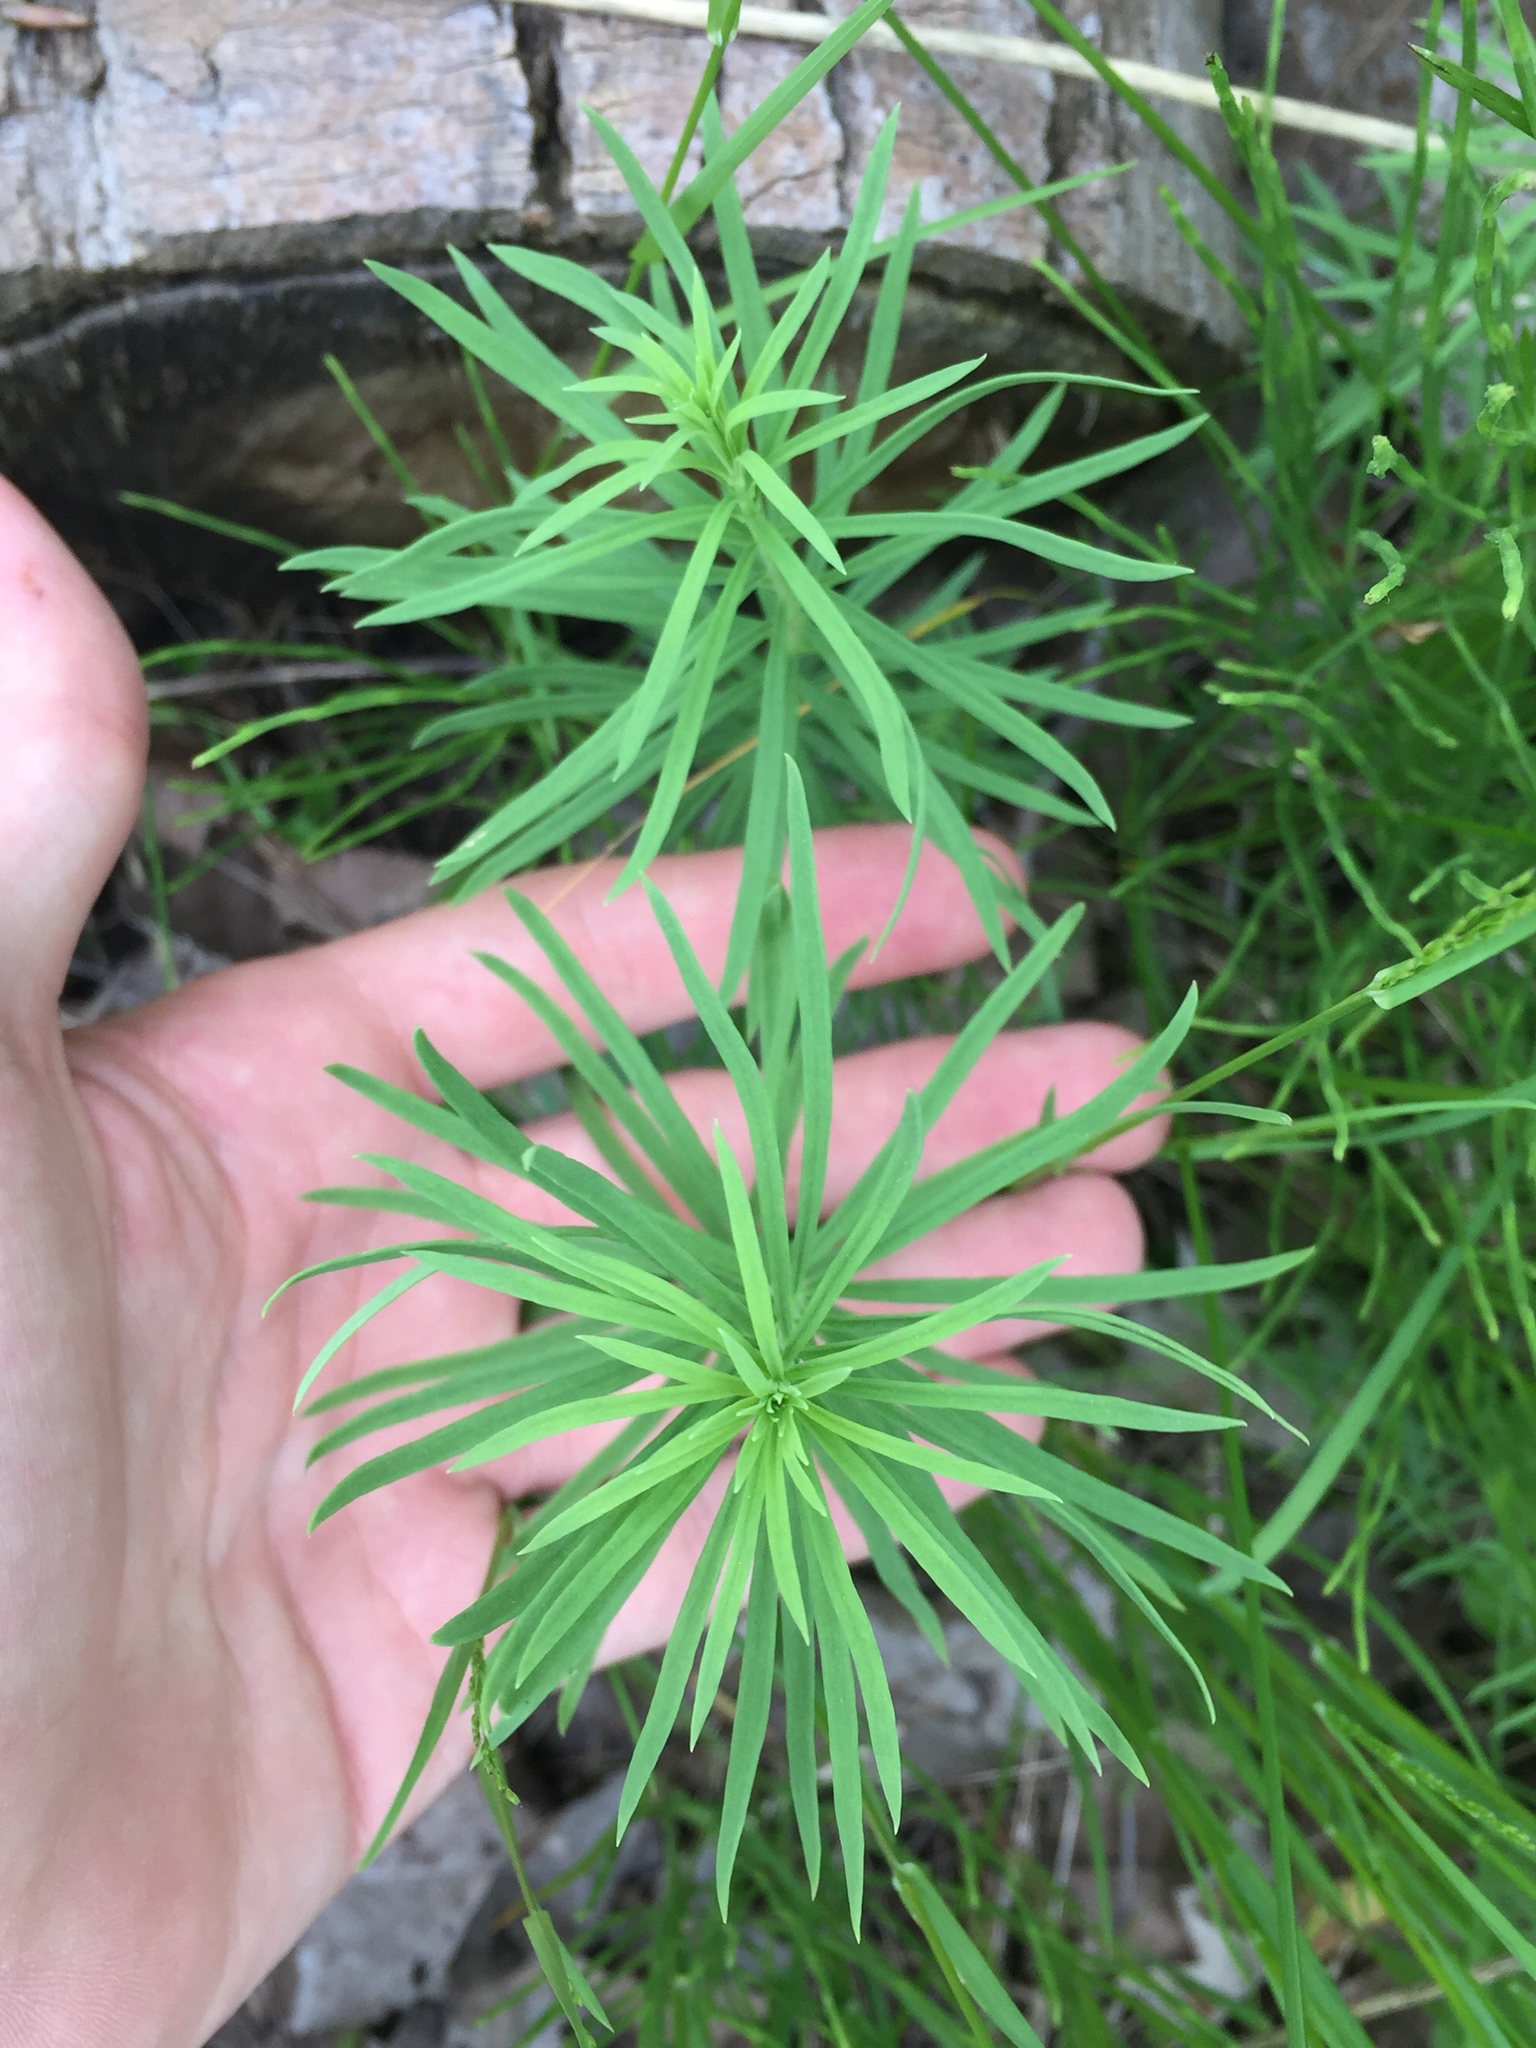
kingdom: Plantae
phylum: Tracheophyta
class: Magnoliopsida
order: Lamiales
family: Plantaginaceae
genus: Linaria
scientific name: Linaria vulgaris
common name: Butter and eggs
